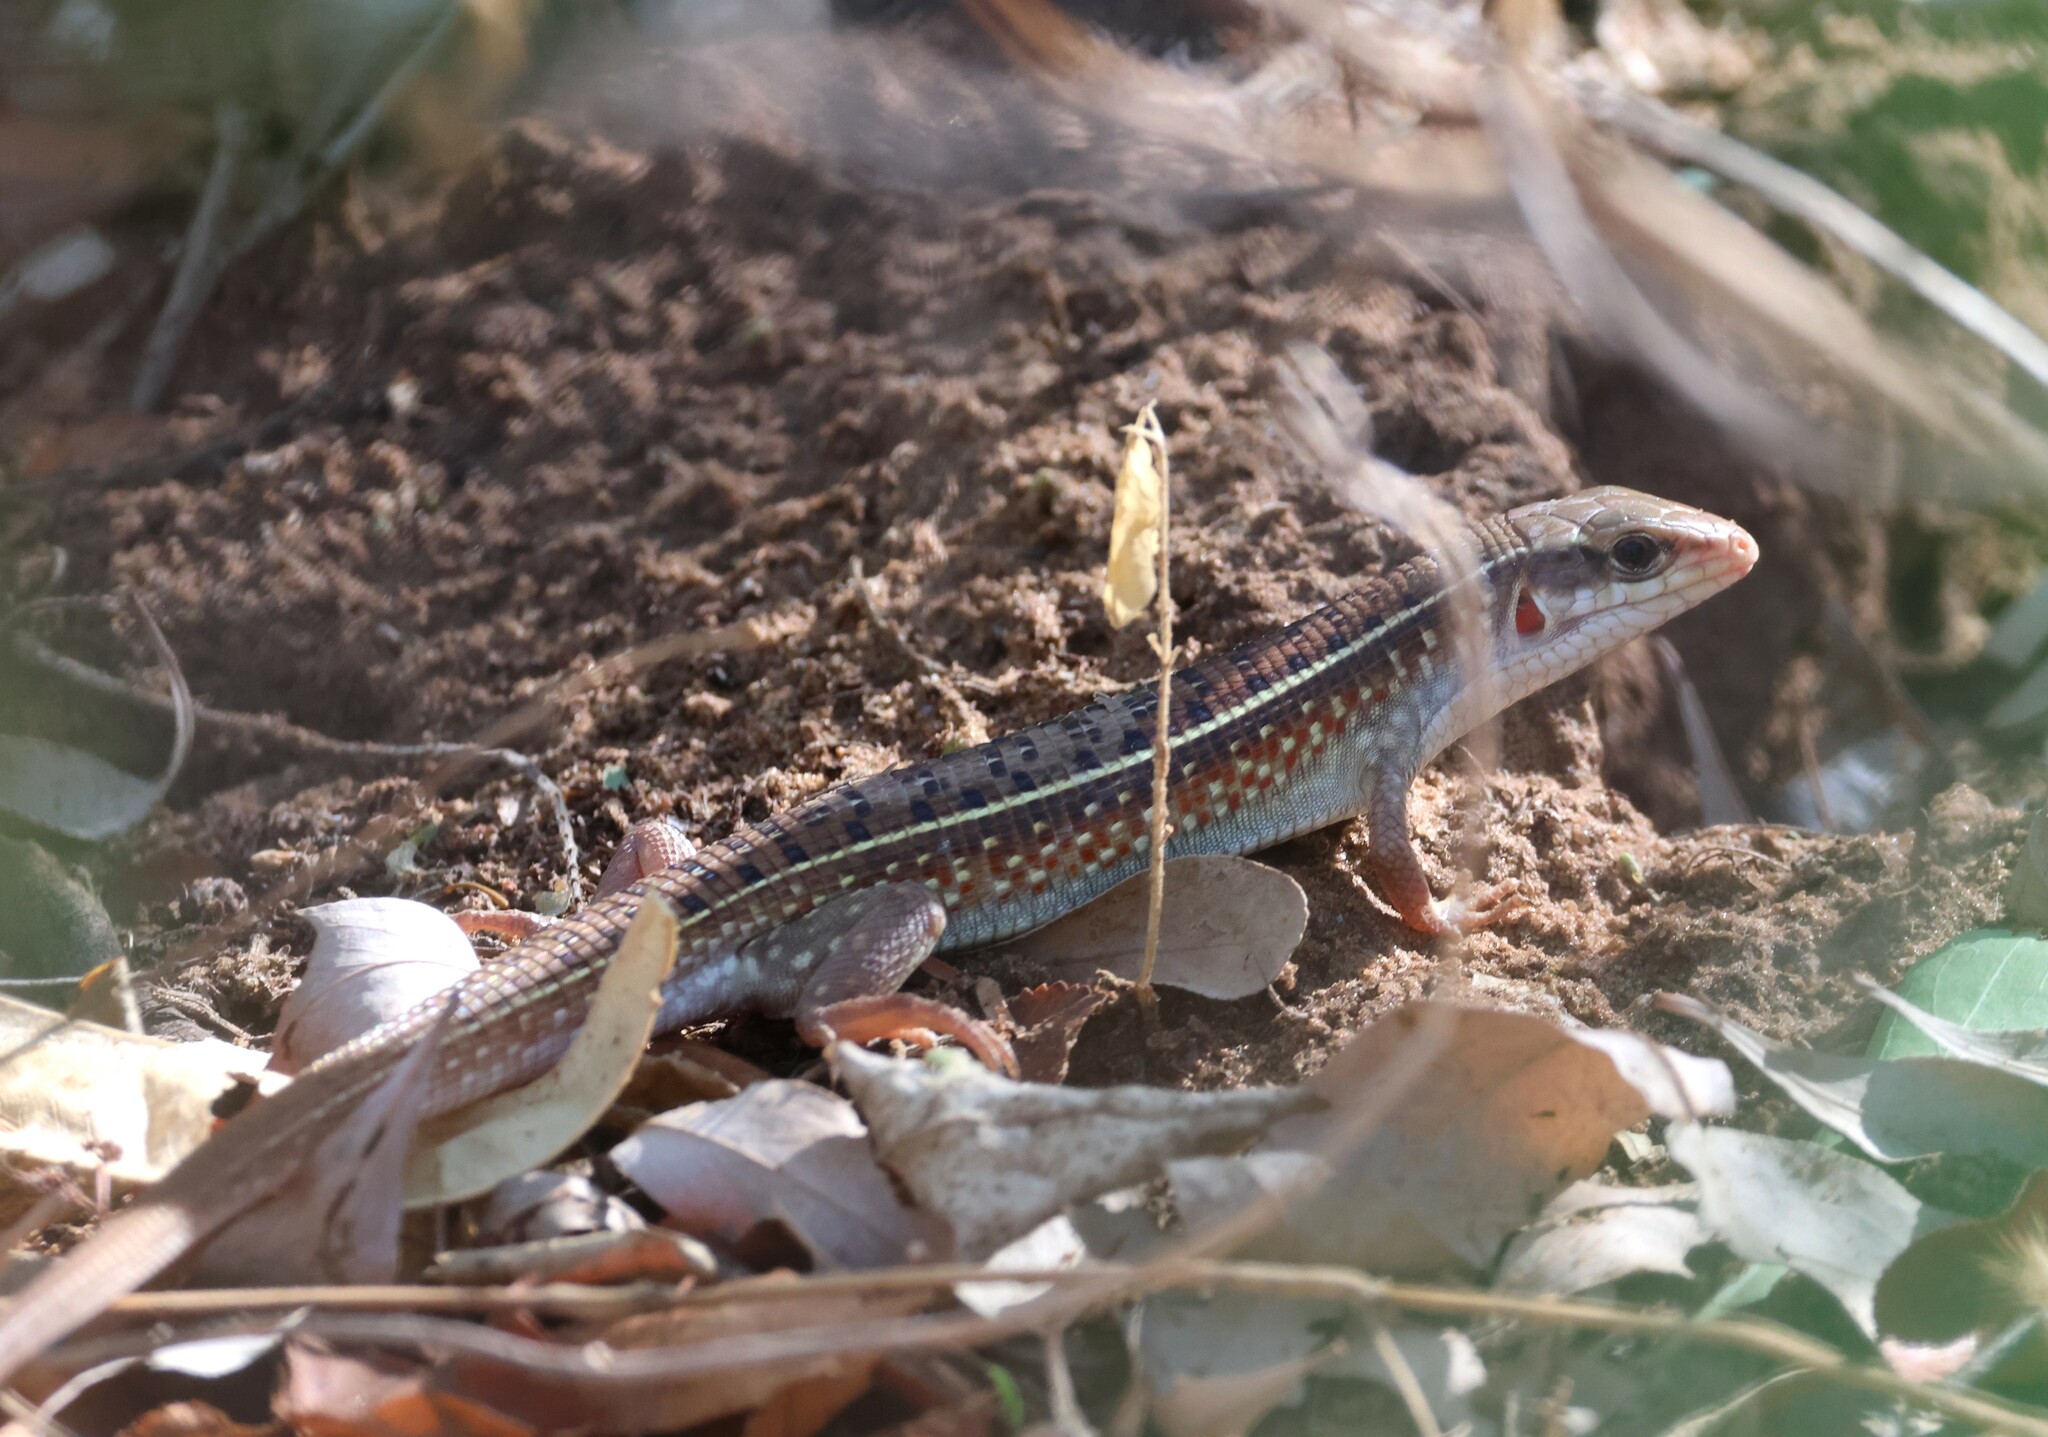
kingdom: Animalia
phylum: Chordata
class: Squamata
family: Gerrhosauridae
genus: Gerrhosaurus
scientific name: Gerrhosaurus nigrolineatus
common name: Black-lined plated lizard
